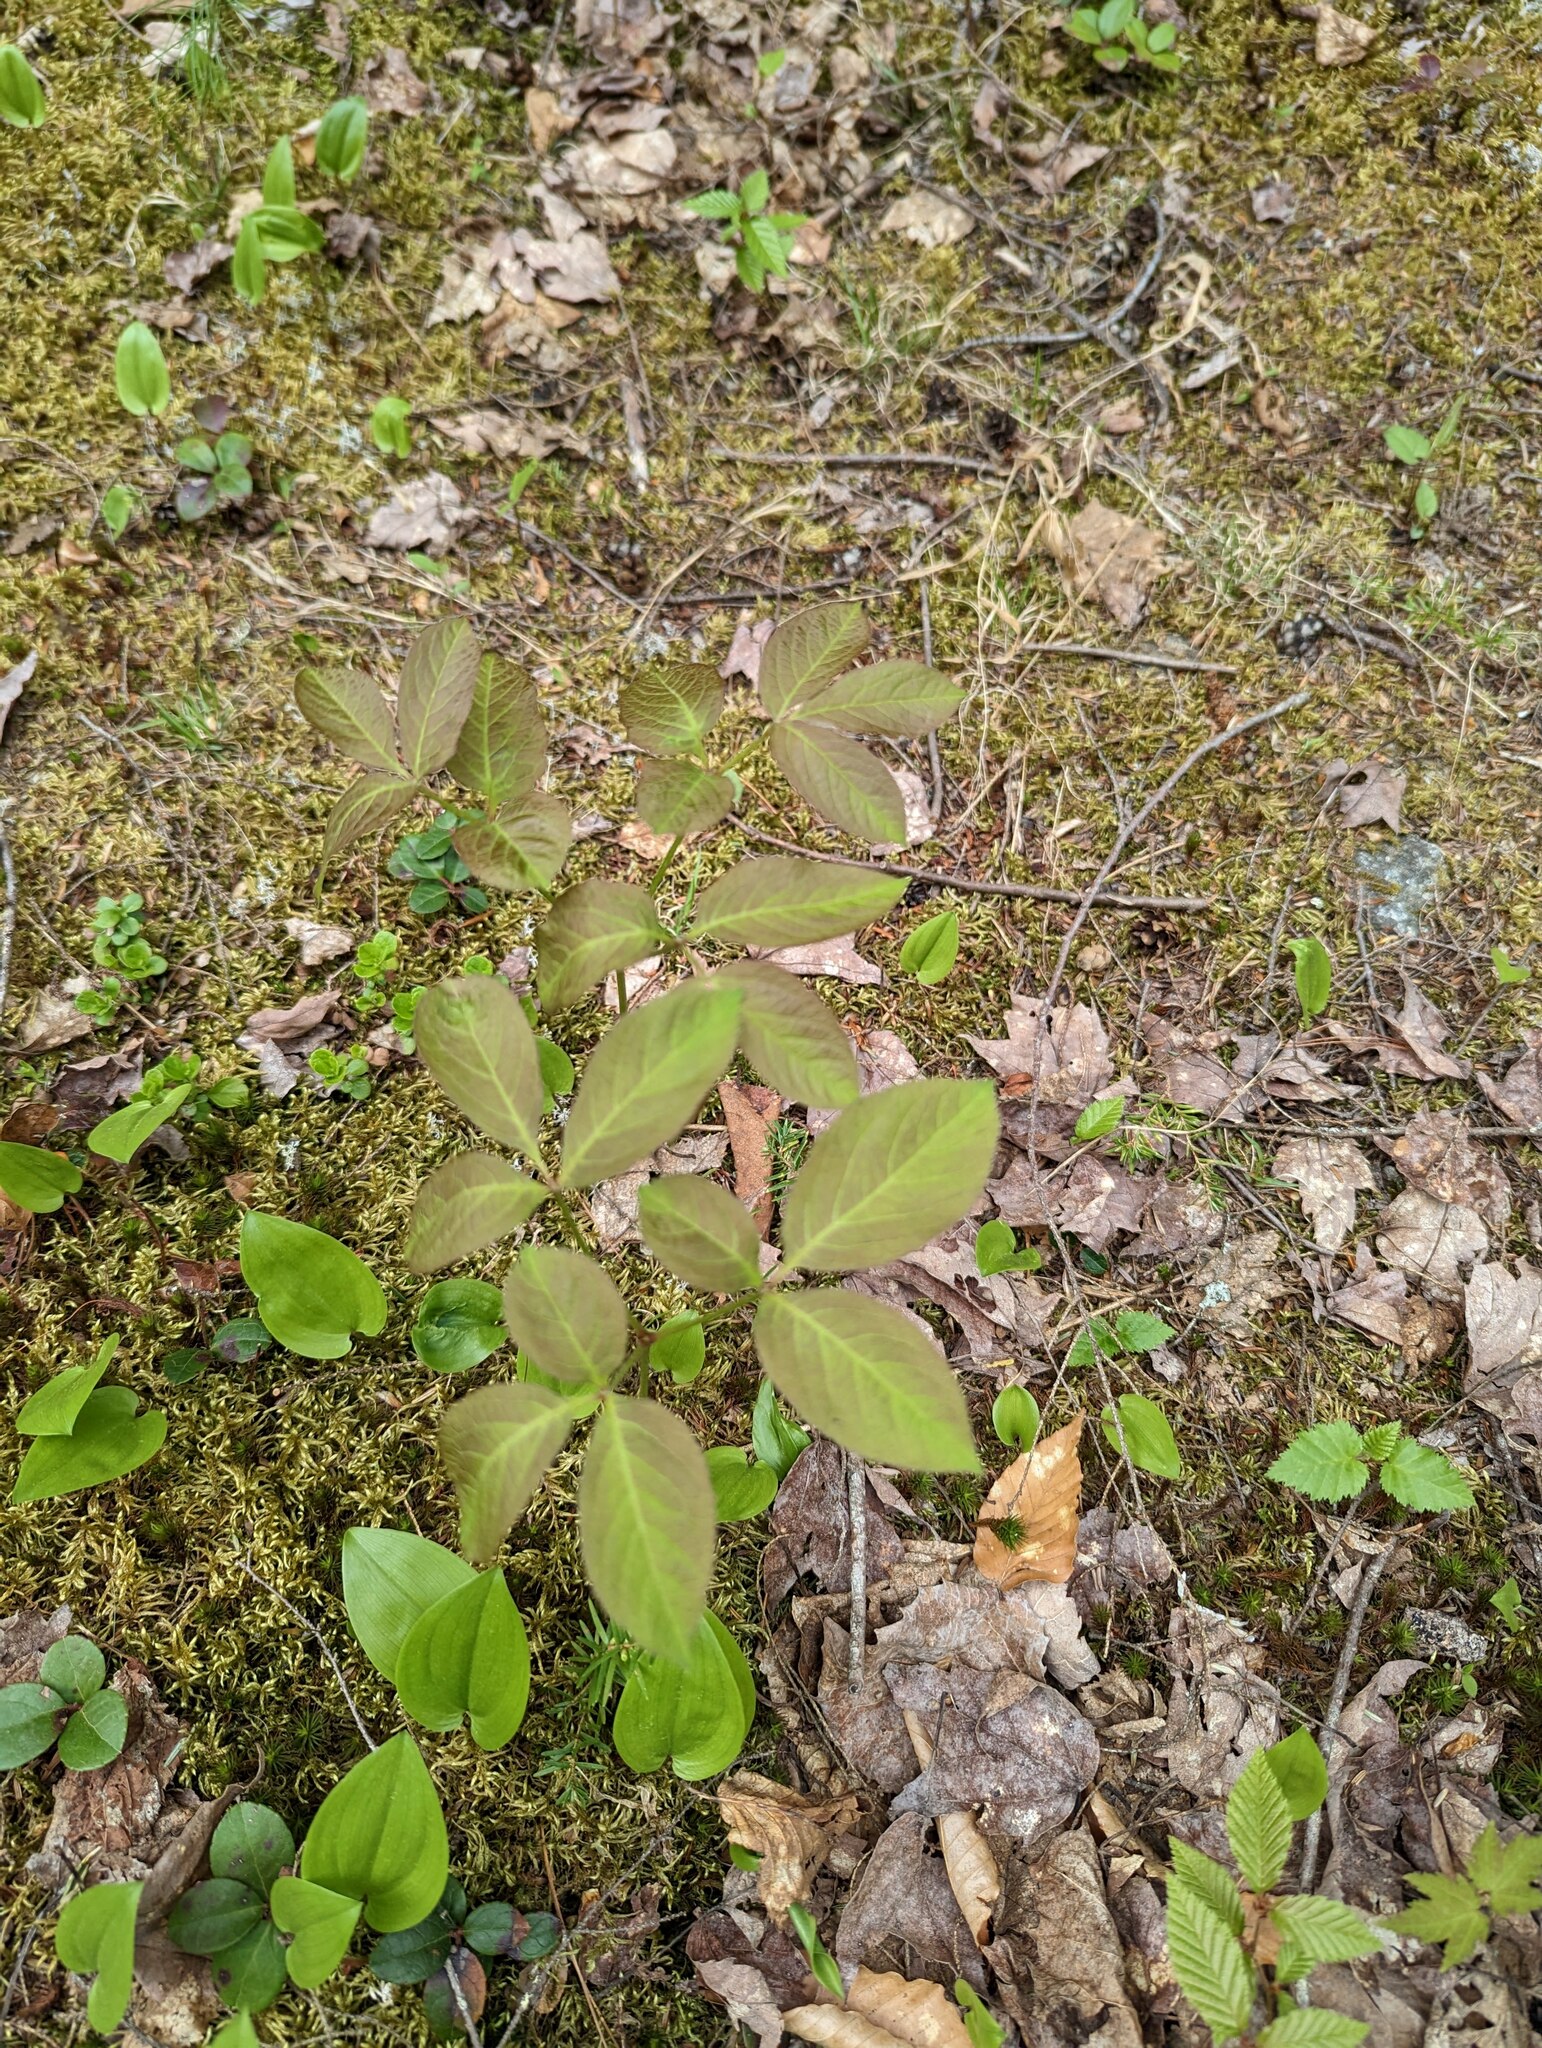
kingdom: Plantae
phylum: Tracheophyta
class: Magnoliopsida
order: Apiales
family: Araliaceae
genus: Aralia
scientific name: Aralia nudicaulis
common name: Wild sarsaparilla
